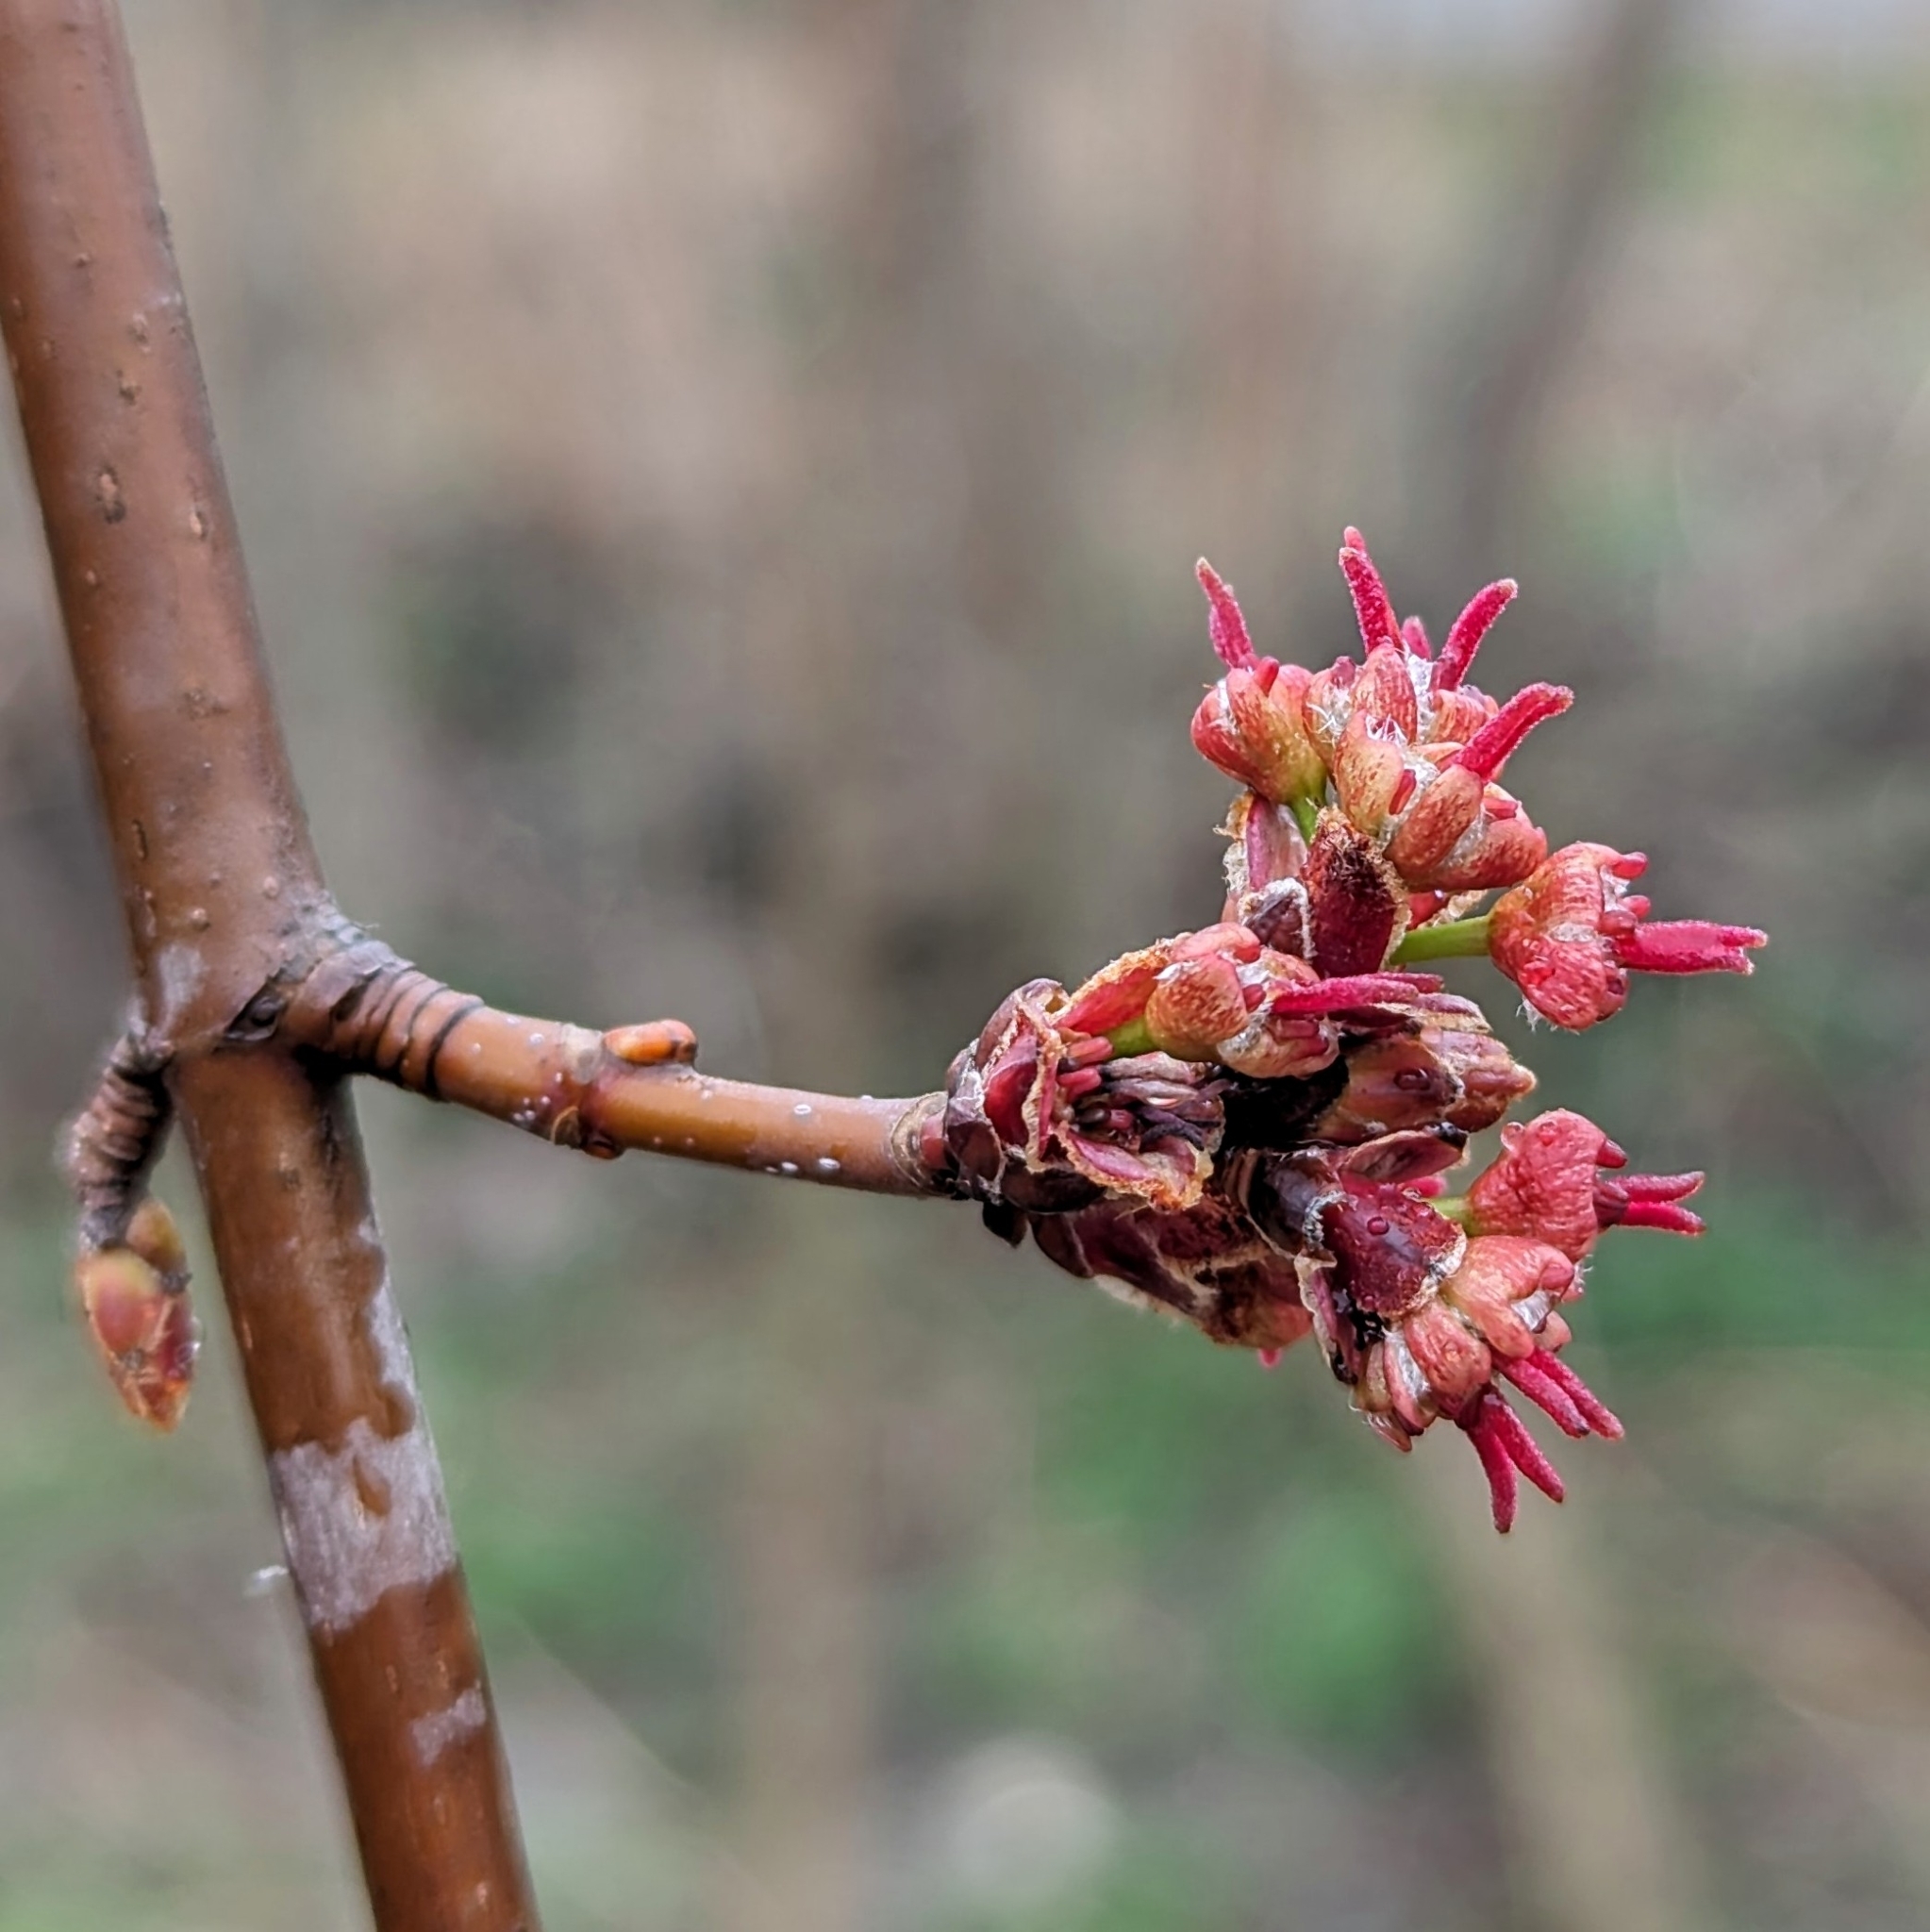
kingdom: Plantae
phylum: Tracheophyta
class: Magnoliopsida
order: Sapindales
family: Sapindaceae
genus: Acer
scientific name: Acer rubrum
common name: Red maple
